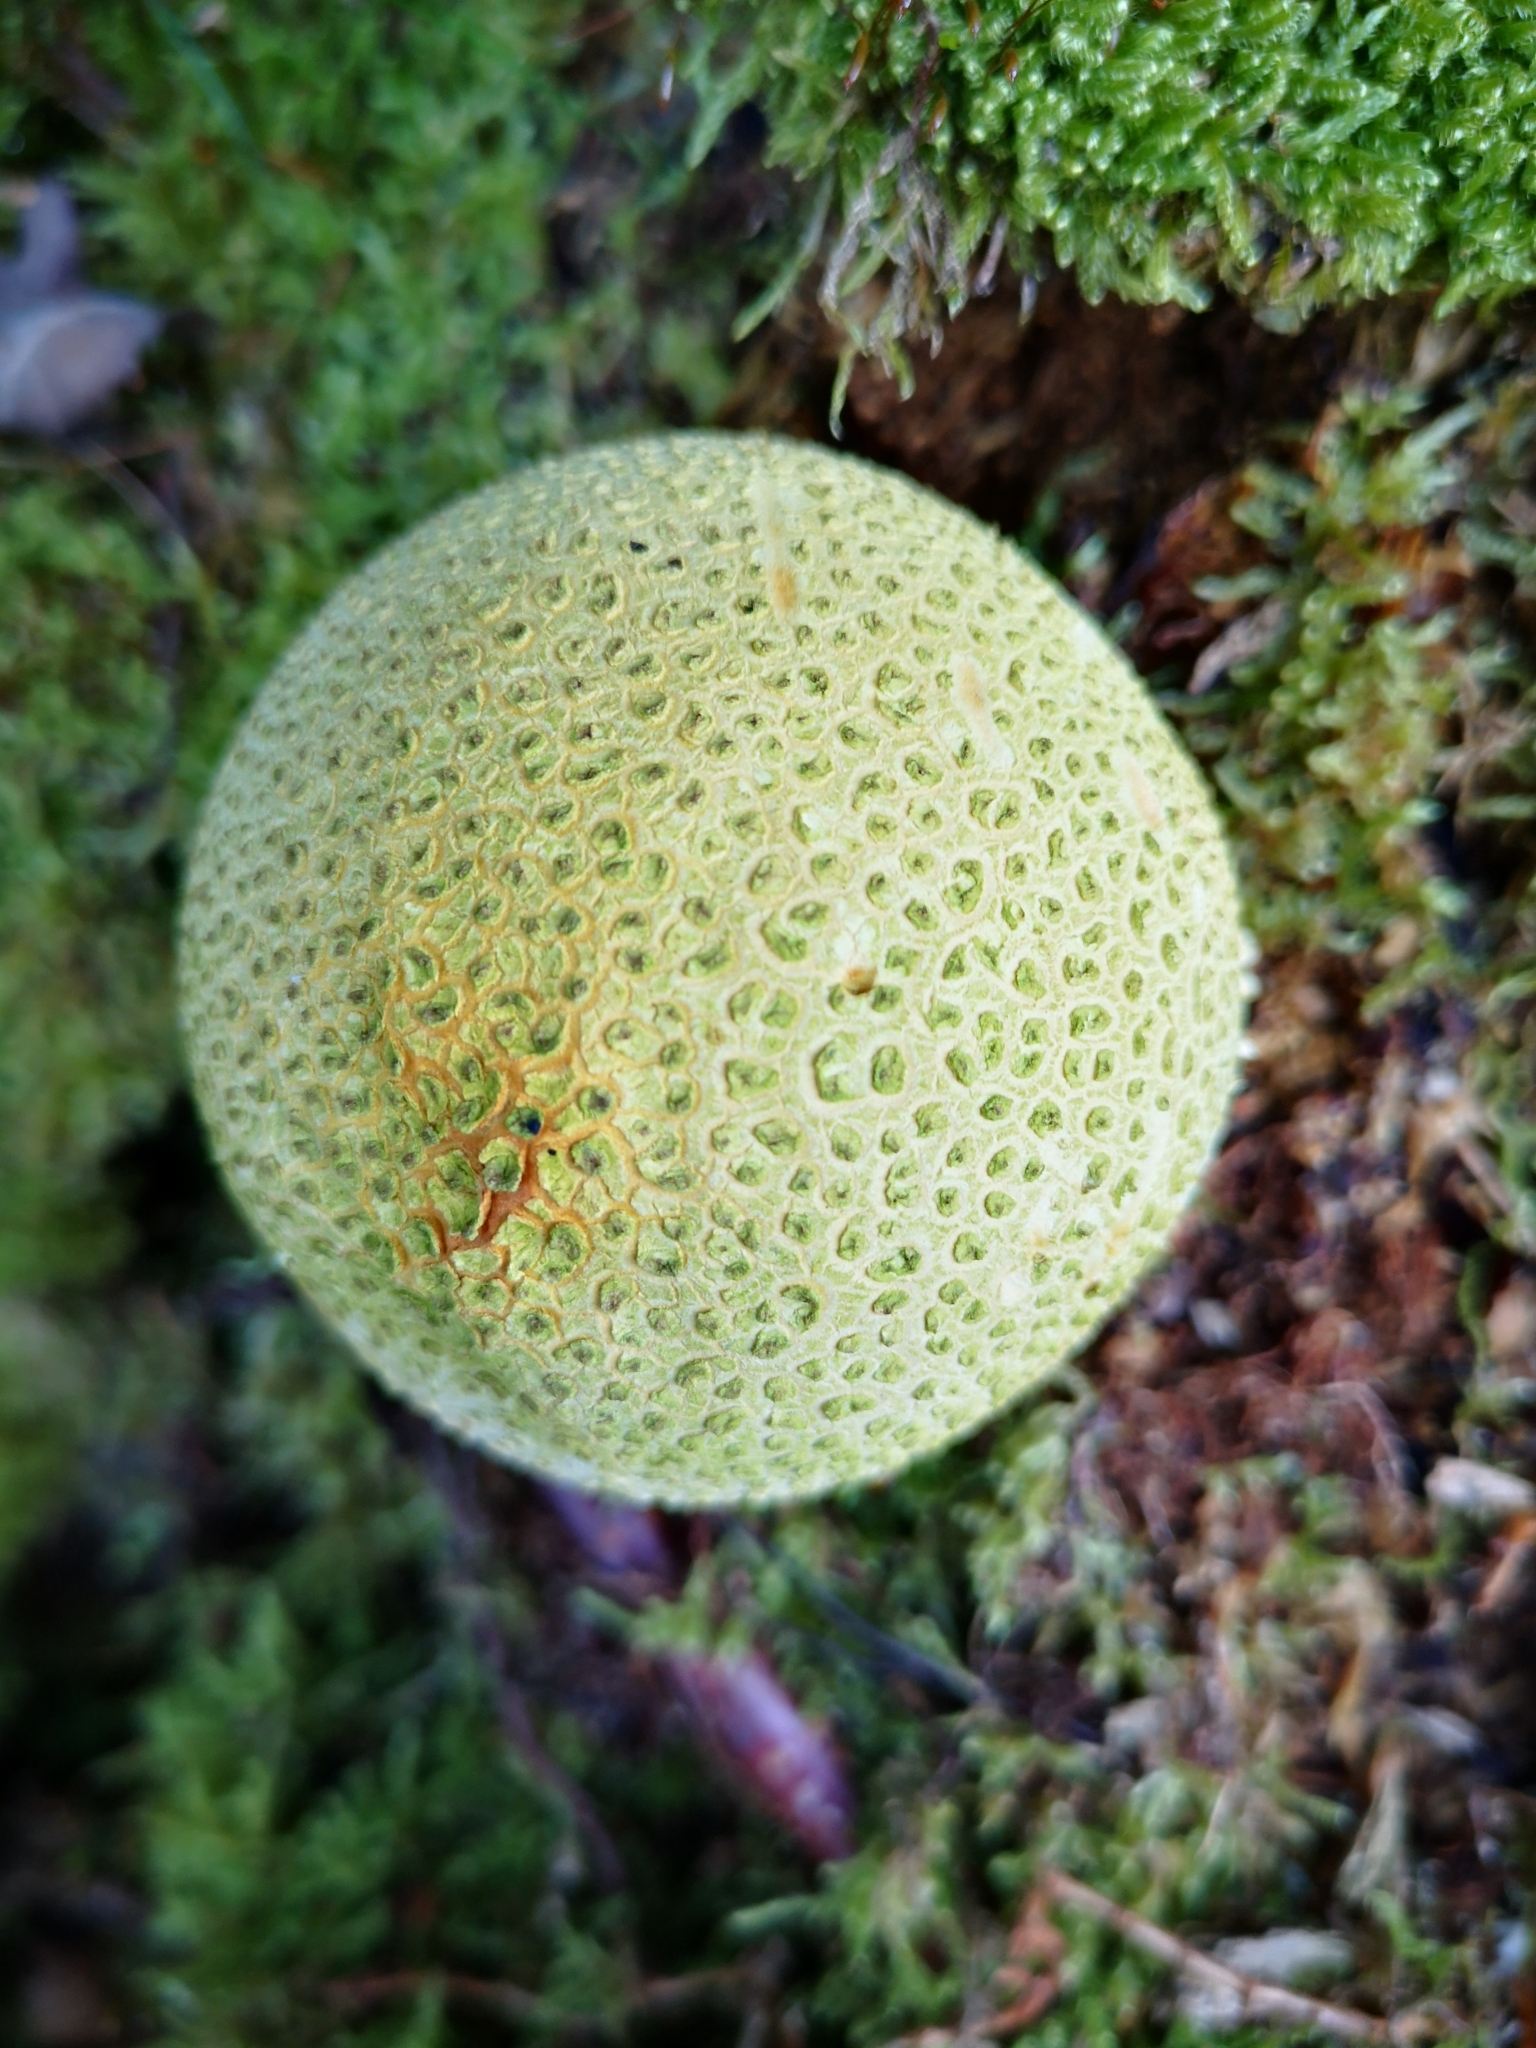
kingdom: Fungi
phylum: Basidiomycota
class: Agaricomycetes
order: Boletales
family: Sclerodermataceae
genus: Scleroderma
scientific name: Scleroderma citrinum
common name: Common earthball
